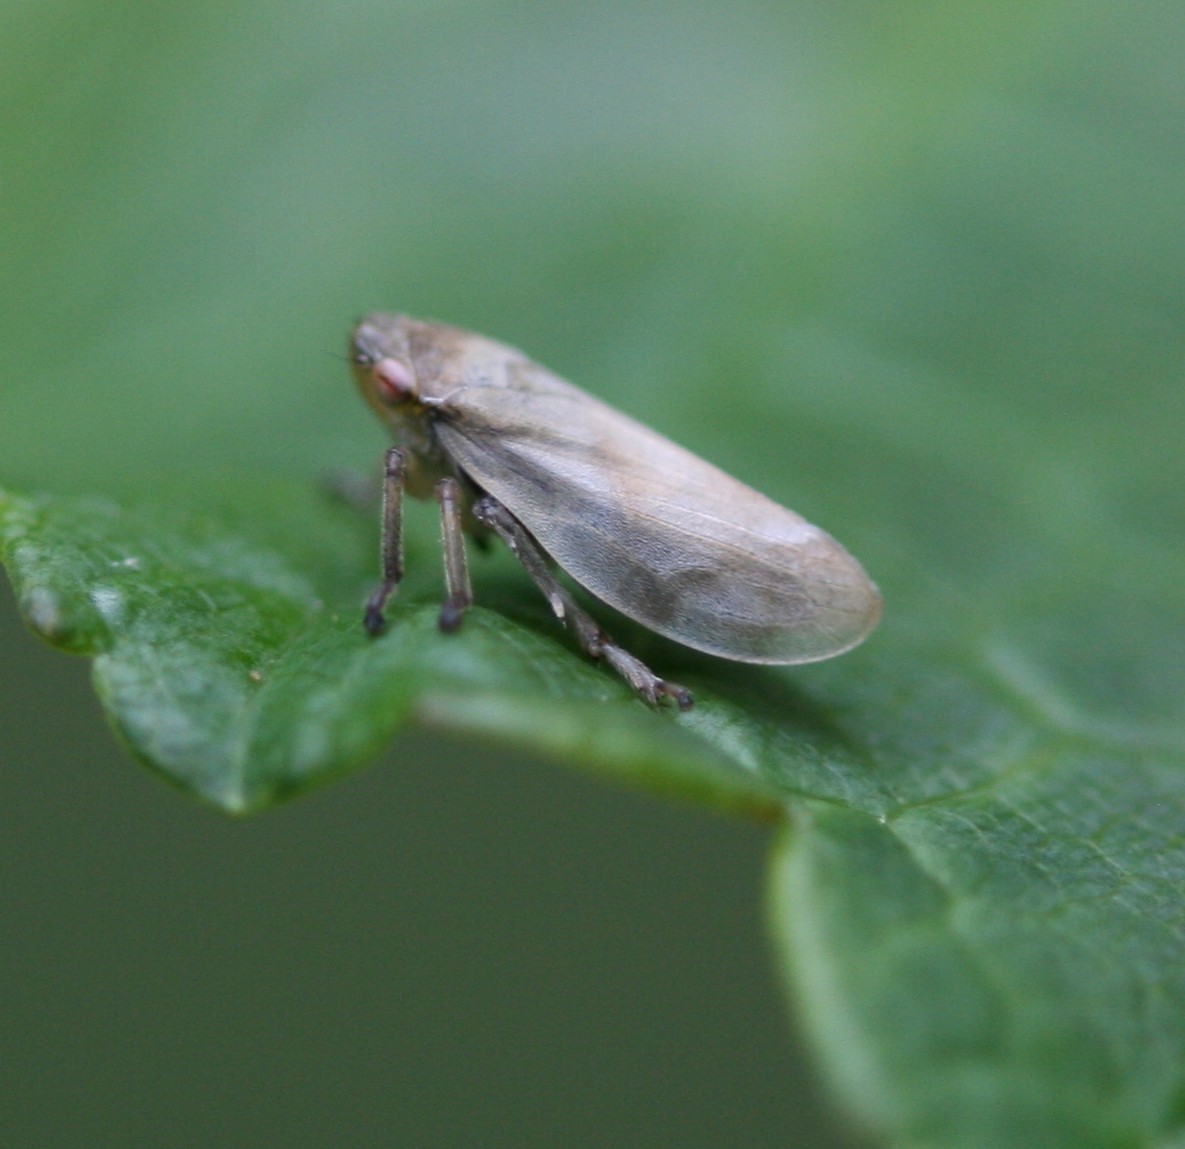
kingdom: Animalia
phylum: Arthropoda
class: Insecta
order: Hemiptera
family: Aphrophoridae
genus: Philaenus
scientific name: Philaenus spumarius
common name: Meadow spittlebug
